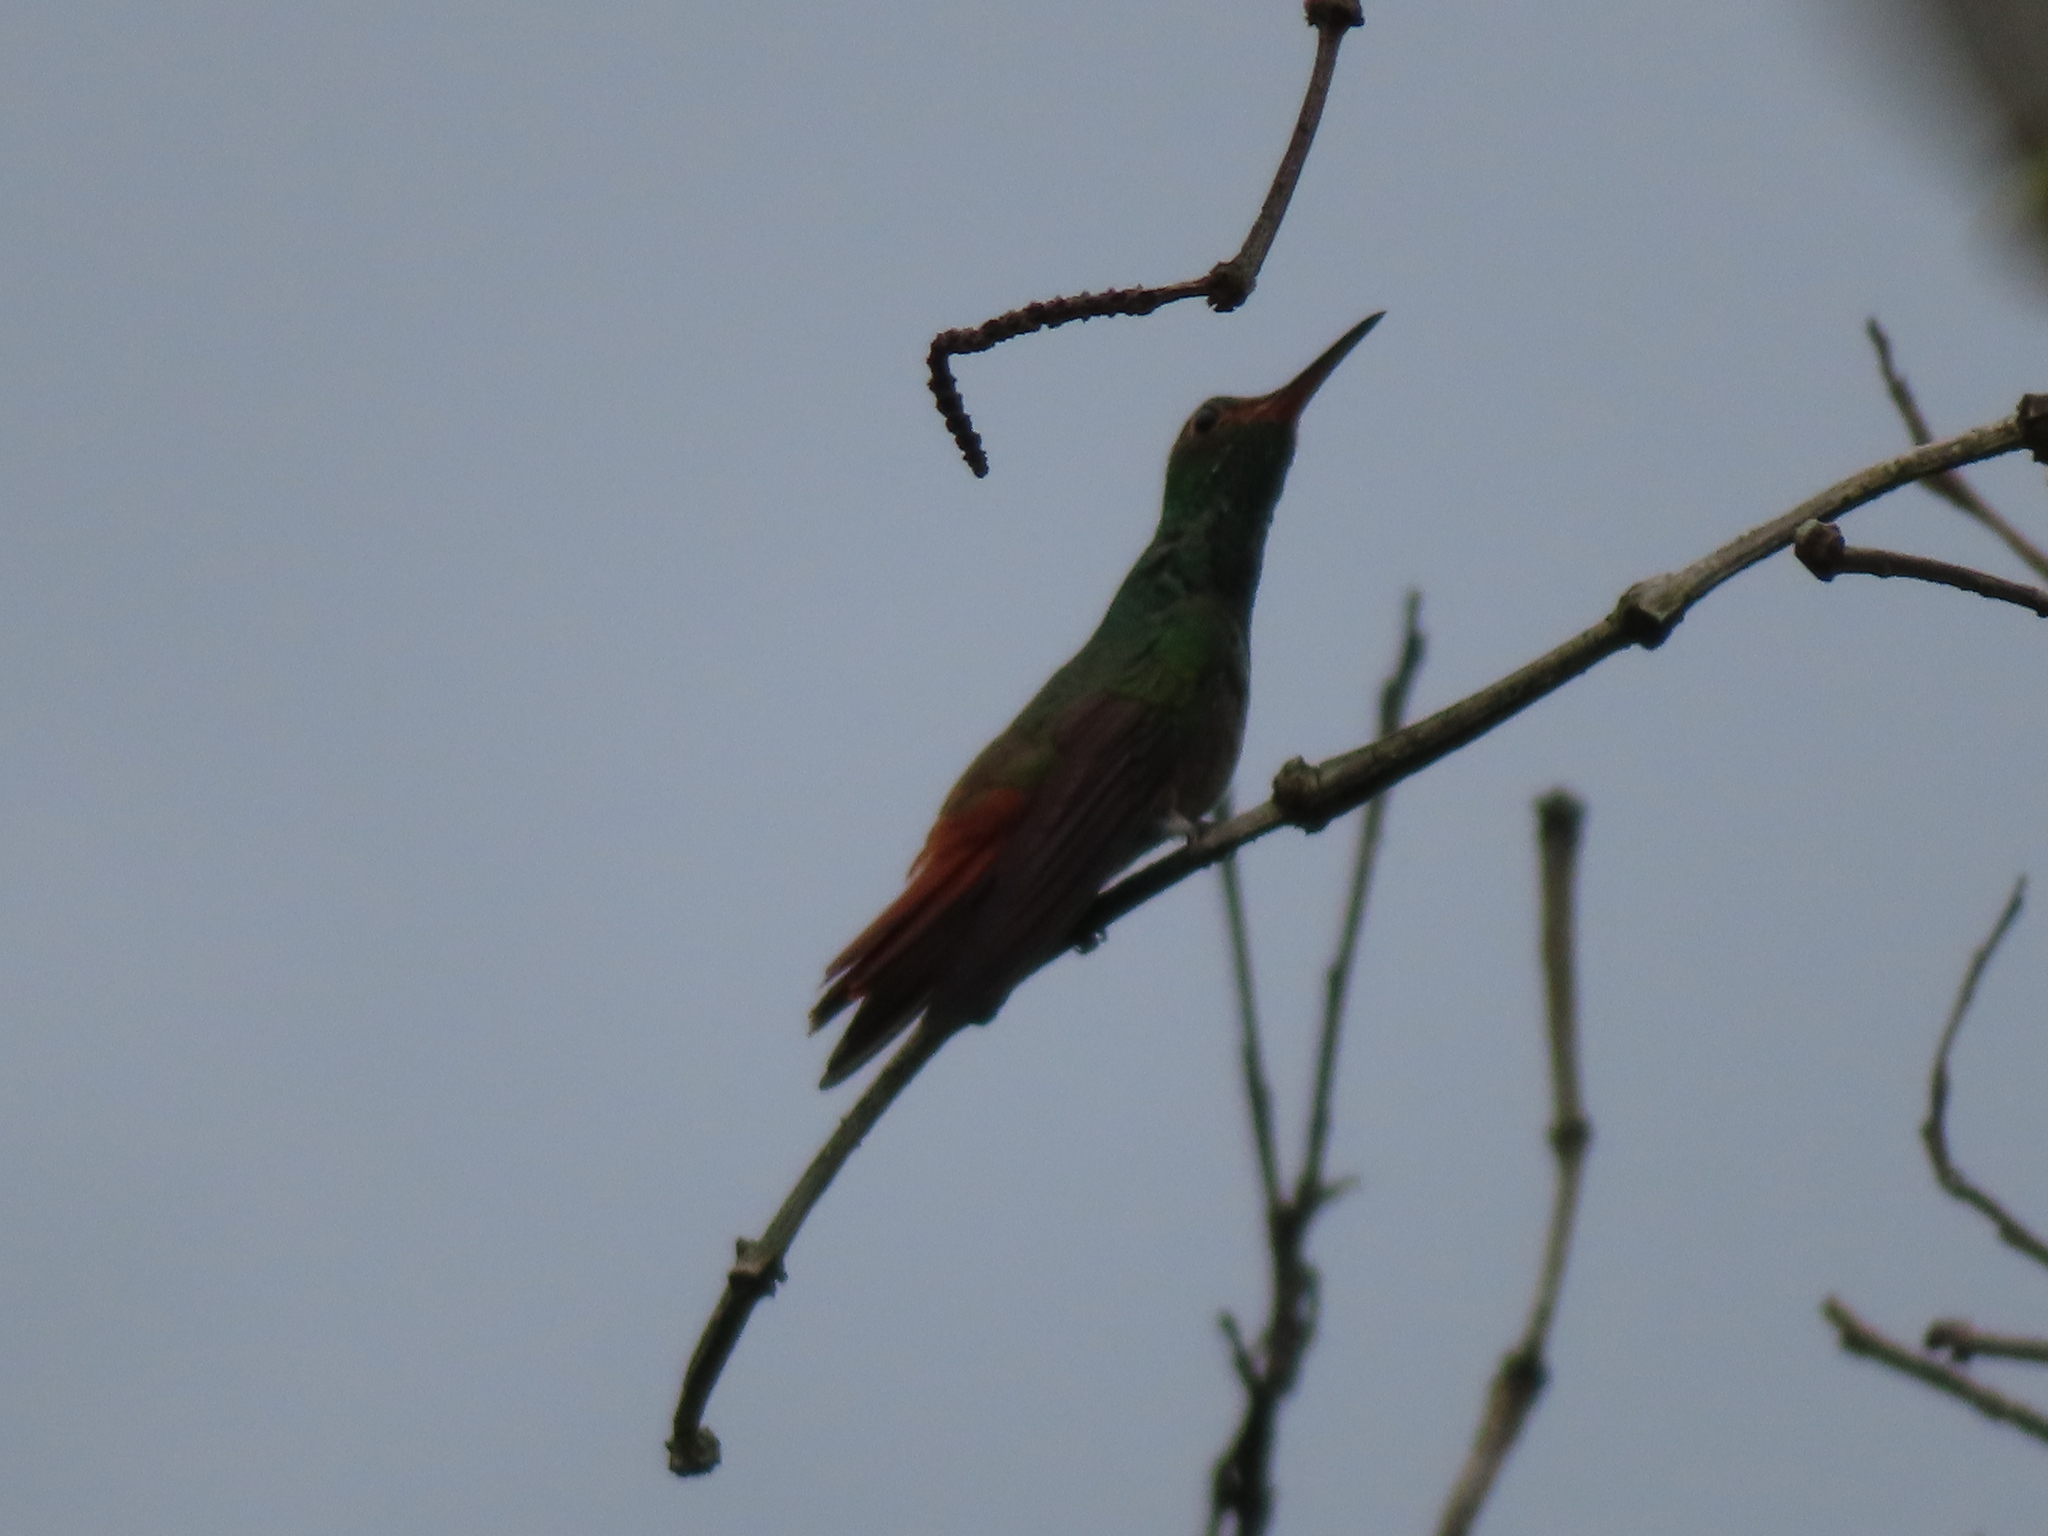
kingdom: Animalia
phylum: Chordata
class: Aves
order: Apodiformes
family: Trochilidae
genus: Amazilia
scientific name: Amazilia tzacatl
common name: Rufous-tailed hummingbird
